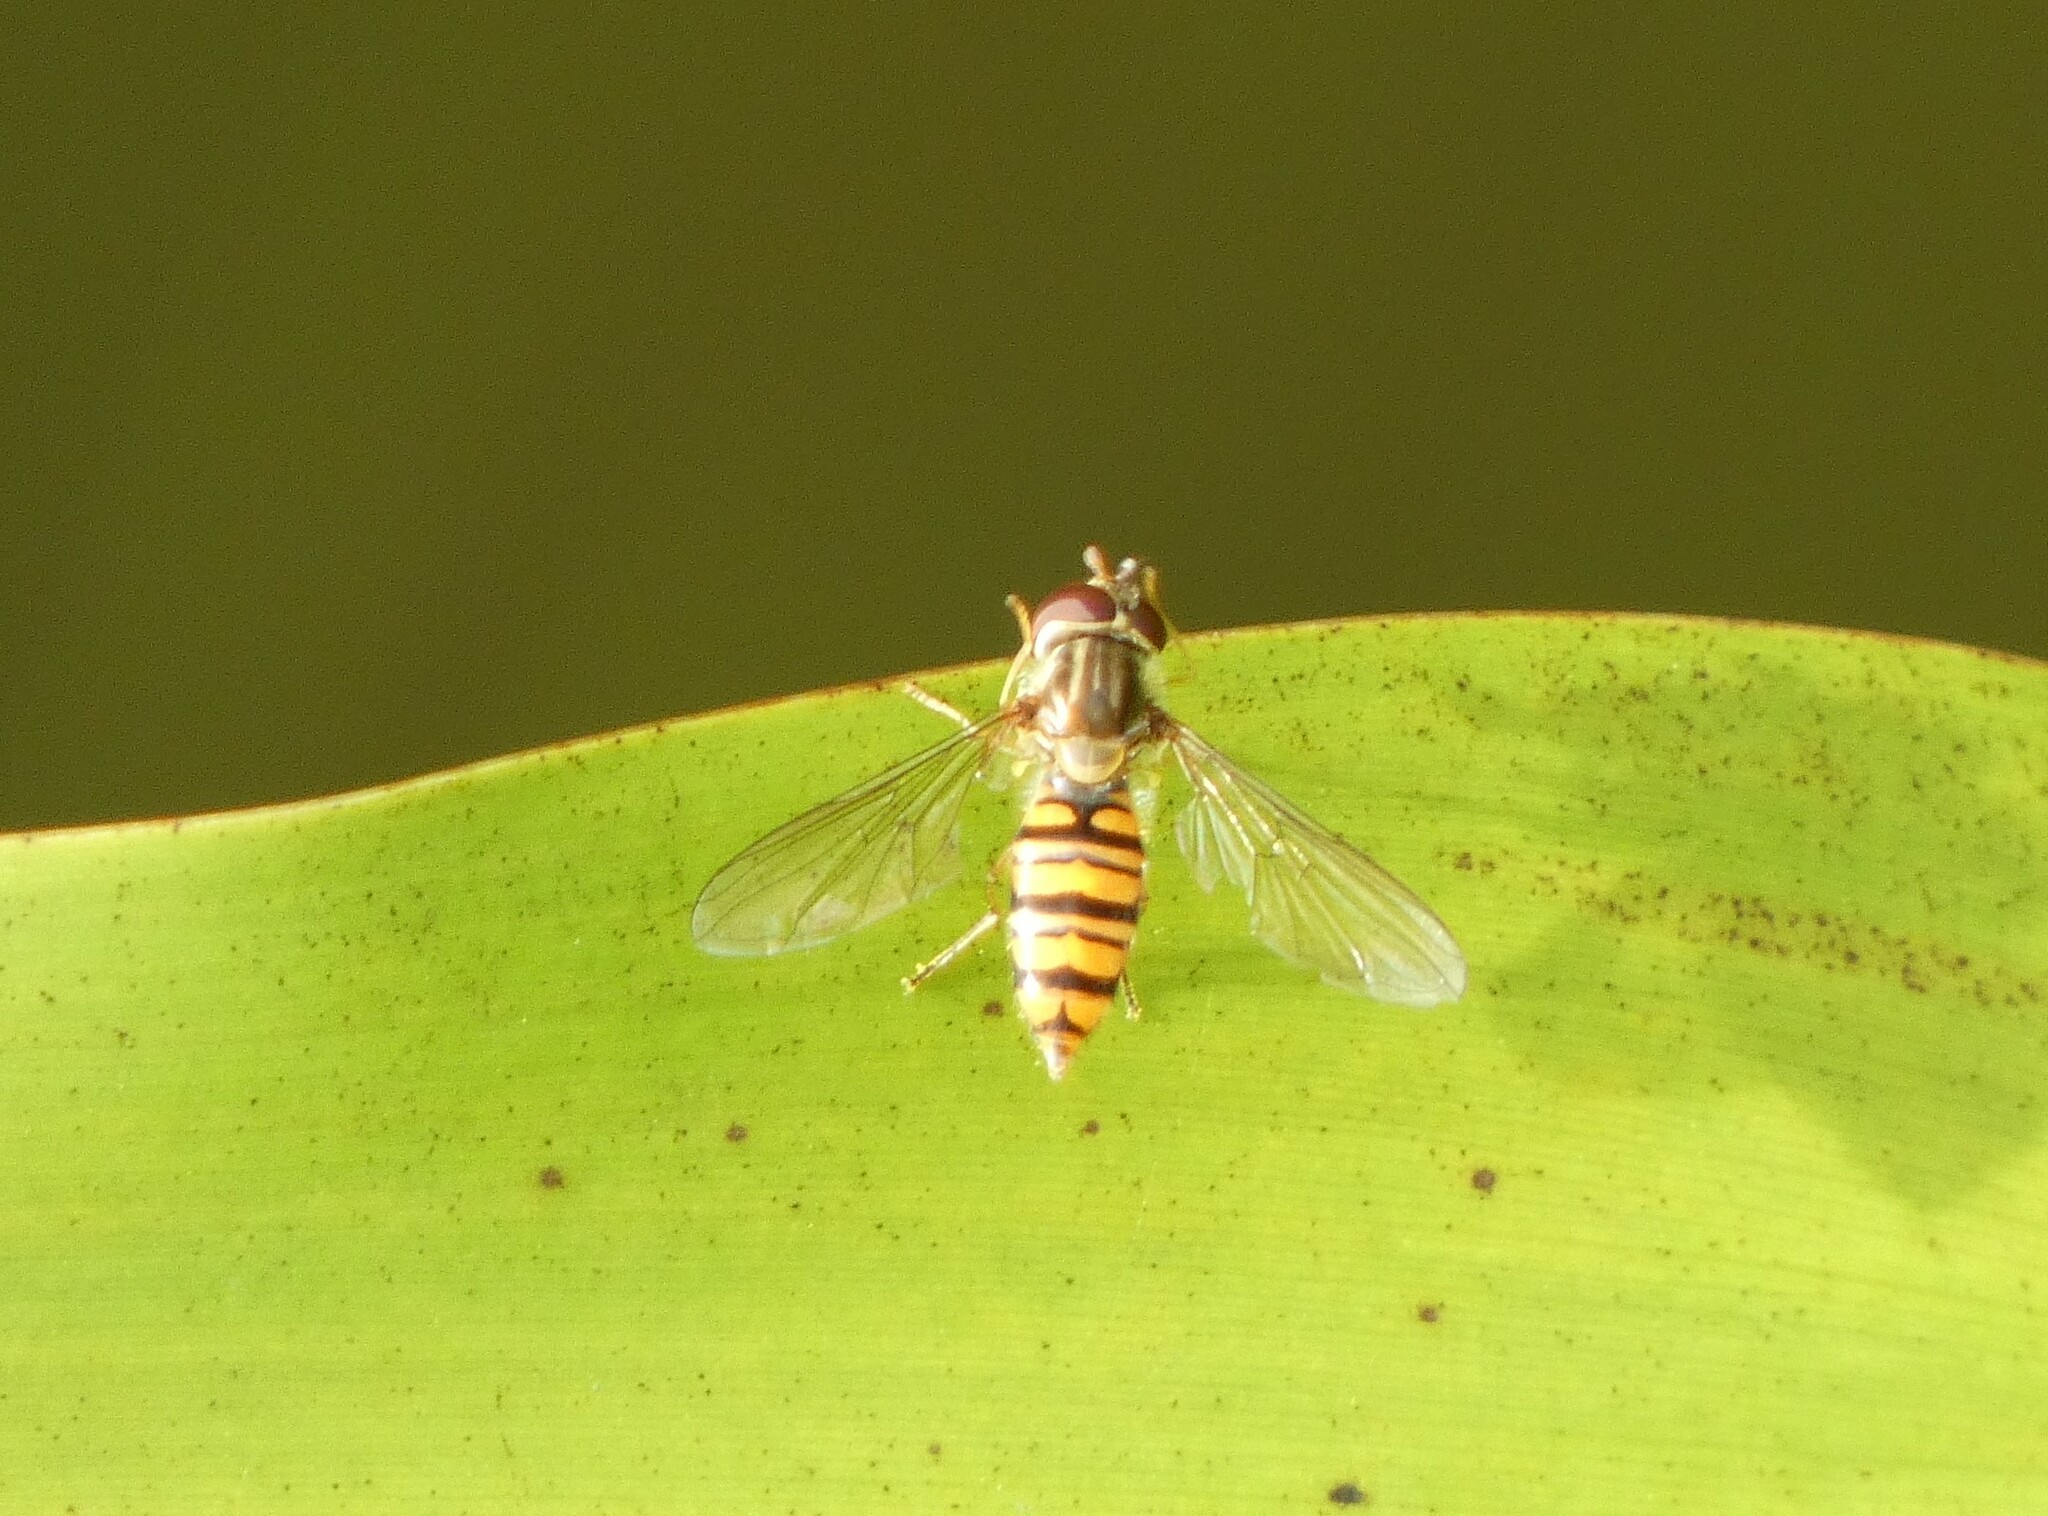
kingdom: Animalia
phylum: Arthropoda
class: Insecta
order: Diptera
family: Syrphidae
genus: Episyrphus
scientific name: Episyrphus balteatus
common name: Marmalade hoverfly
